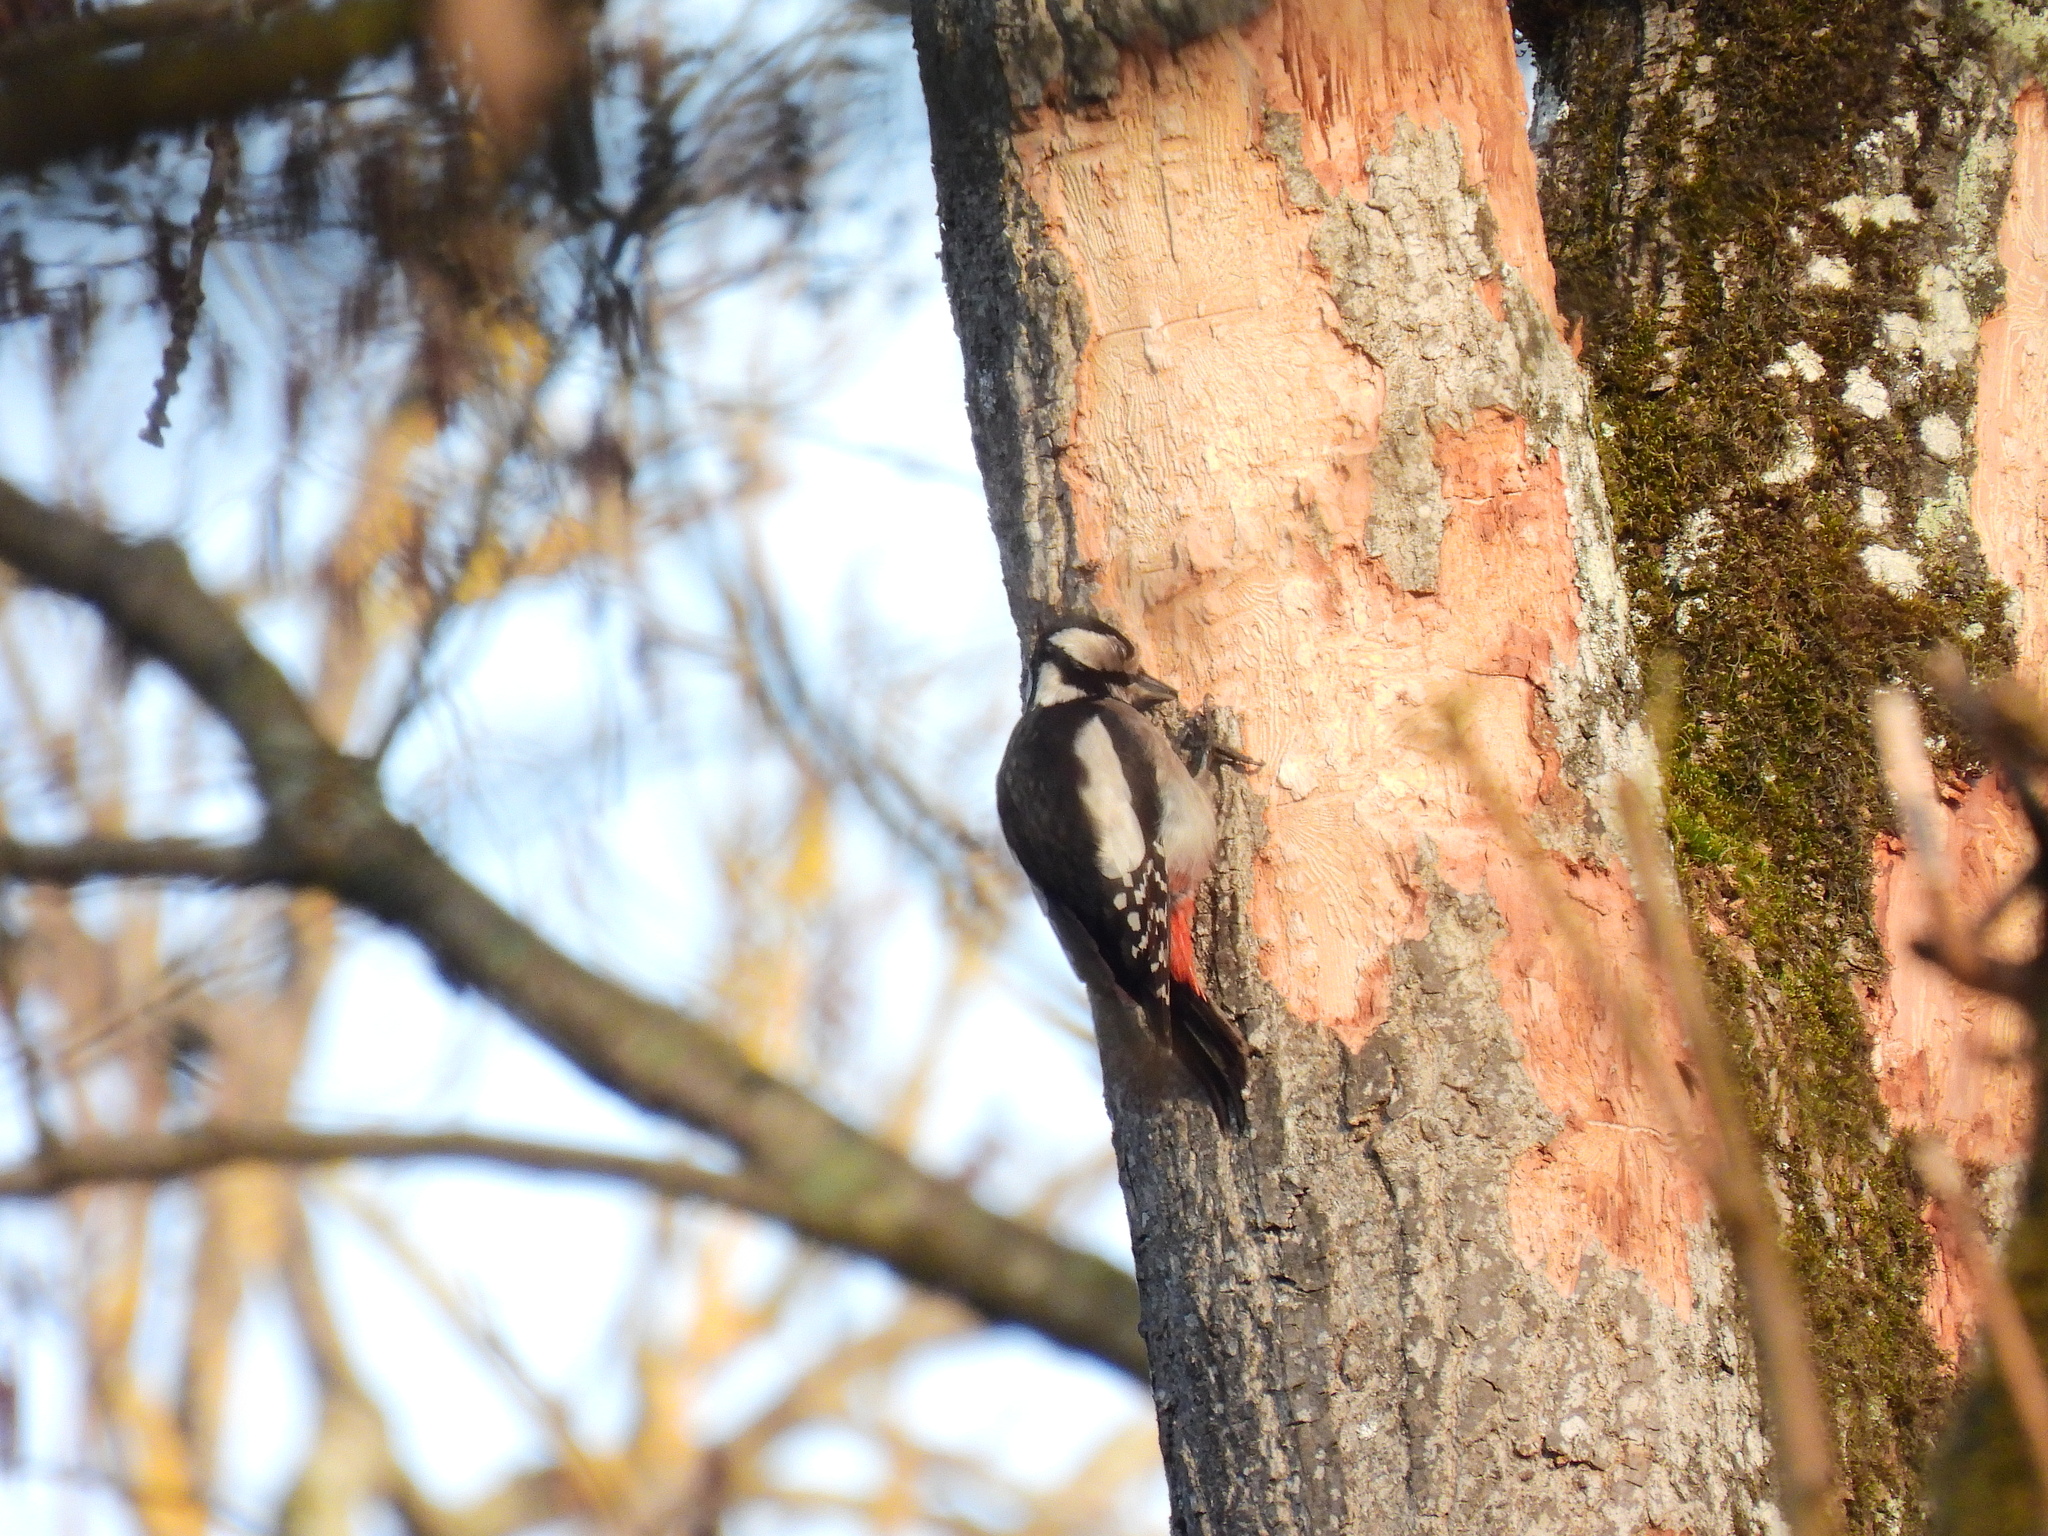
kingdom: Animalia
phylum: Chordata
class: Aves
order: Piciformes
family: Picidae
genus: Dendrocopos
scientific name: Dendrocopos major
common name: Great spotted woodpecker
